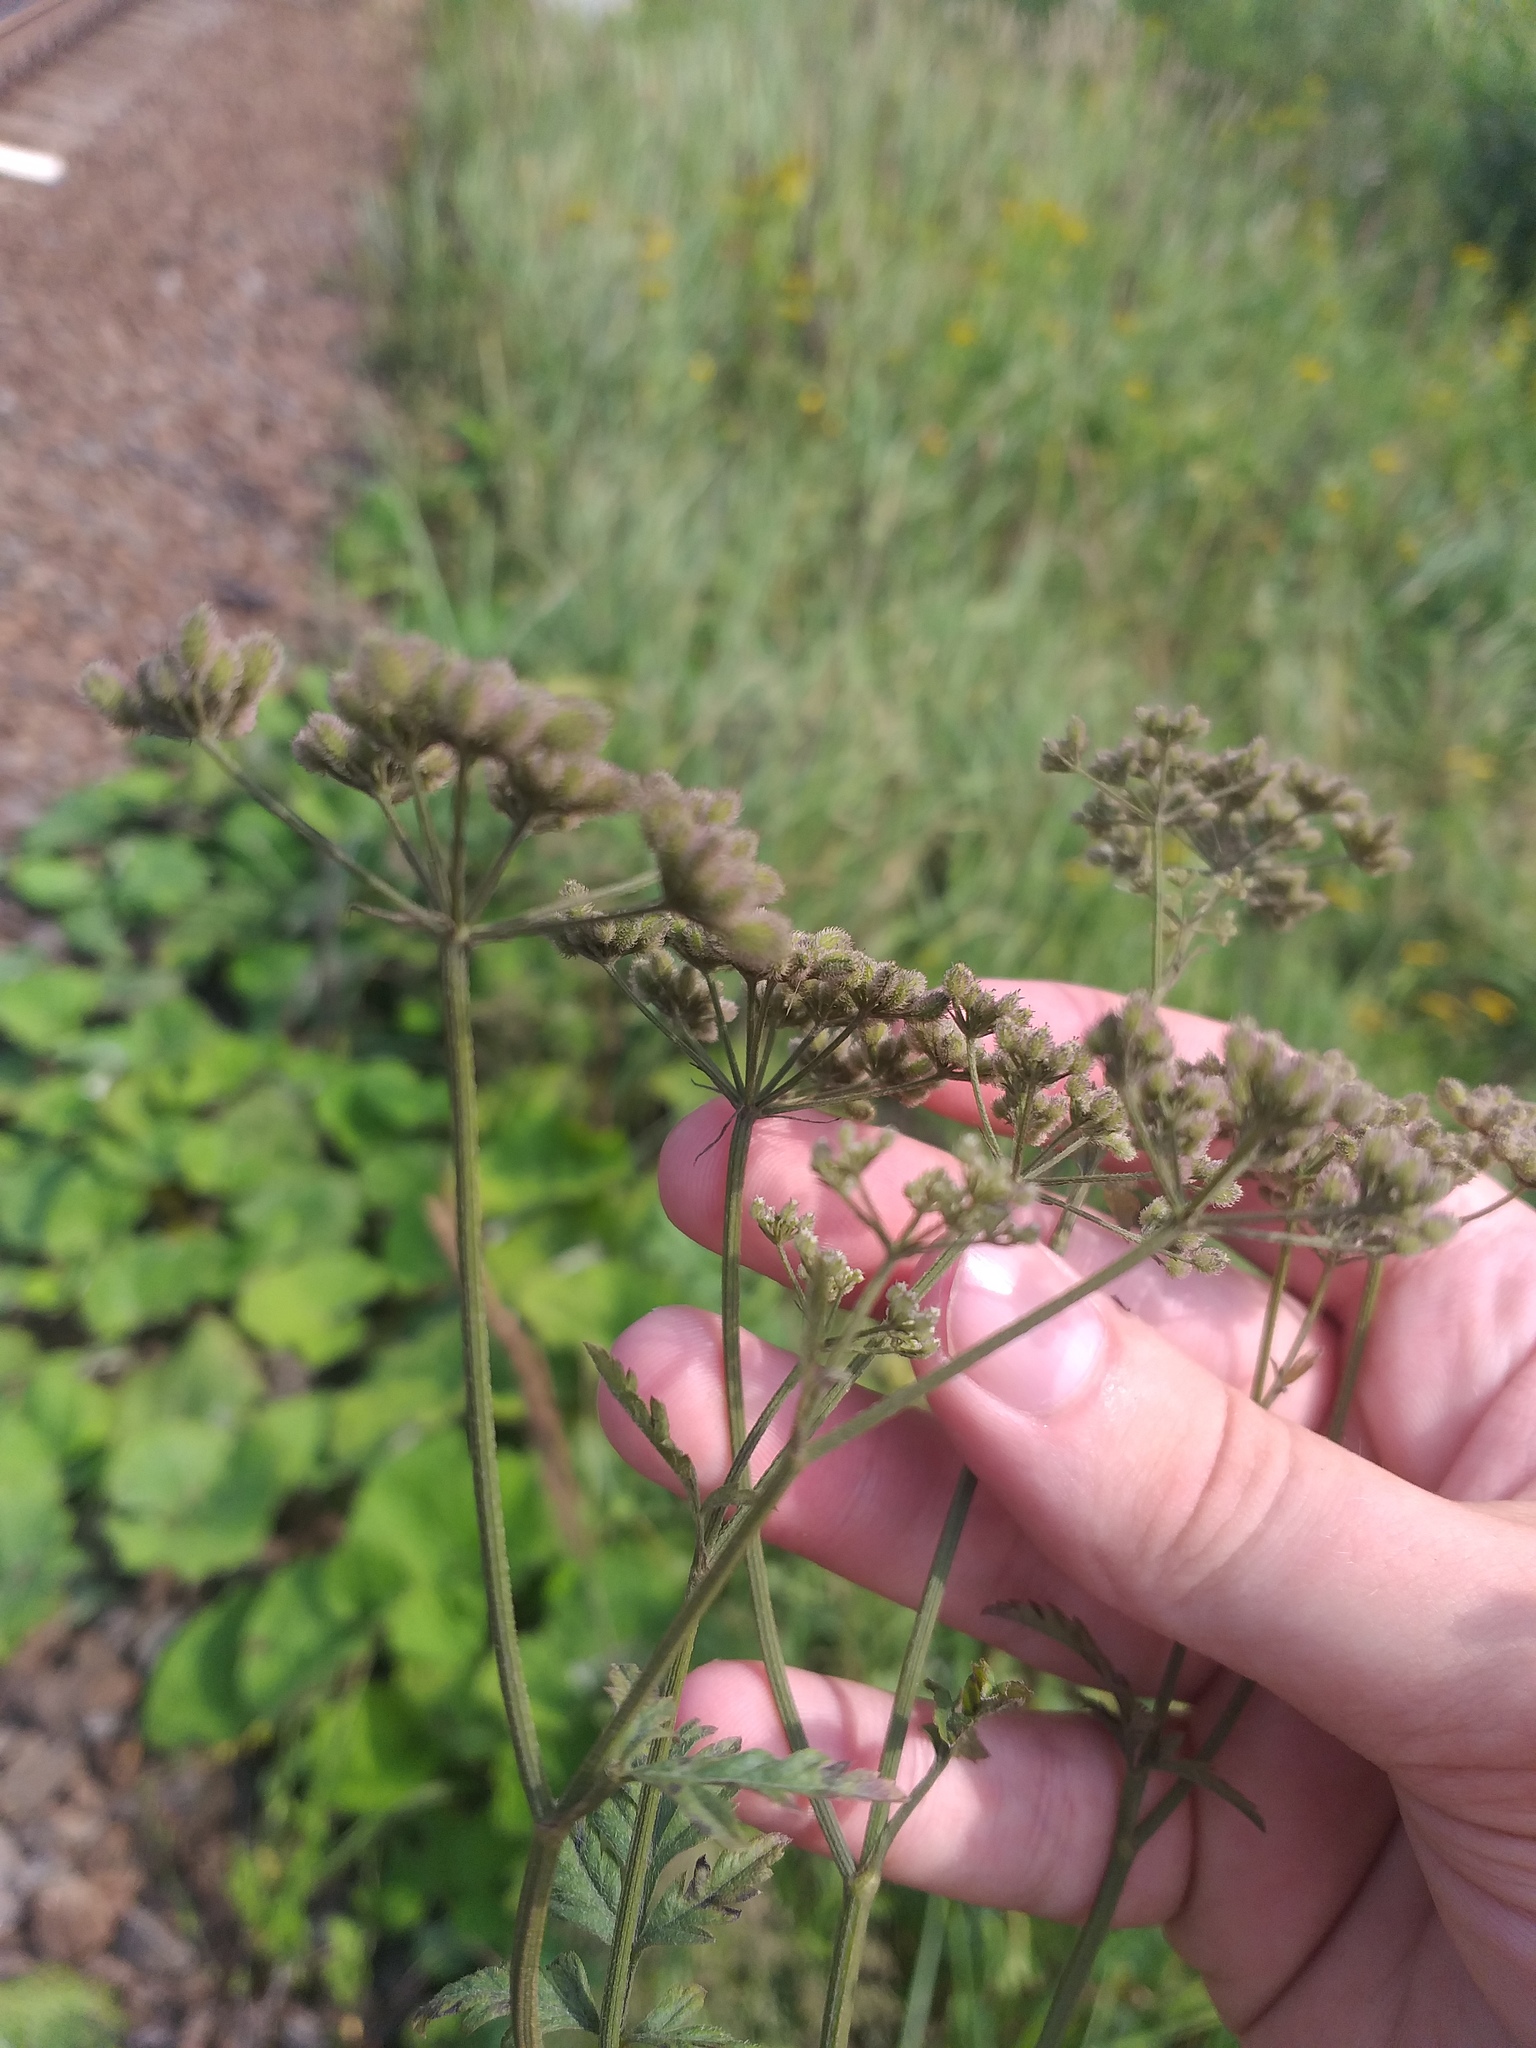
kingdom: Plantae
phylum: Tracheophyta
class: Magnoliopsida
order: Apiales
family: Apiaceae
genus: Torilis
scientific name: Torilis japonica
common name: Upright hedge-parsley
